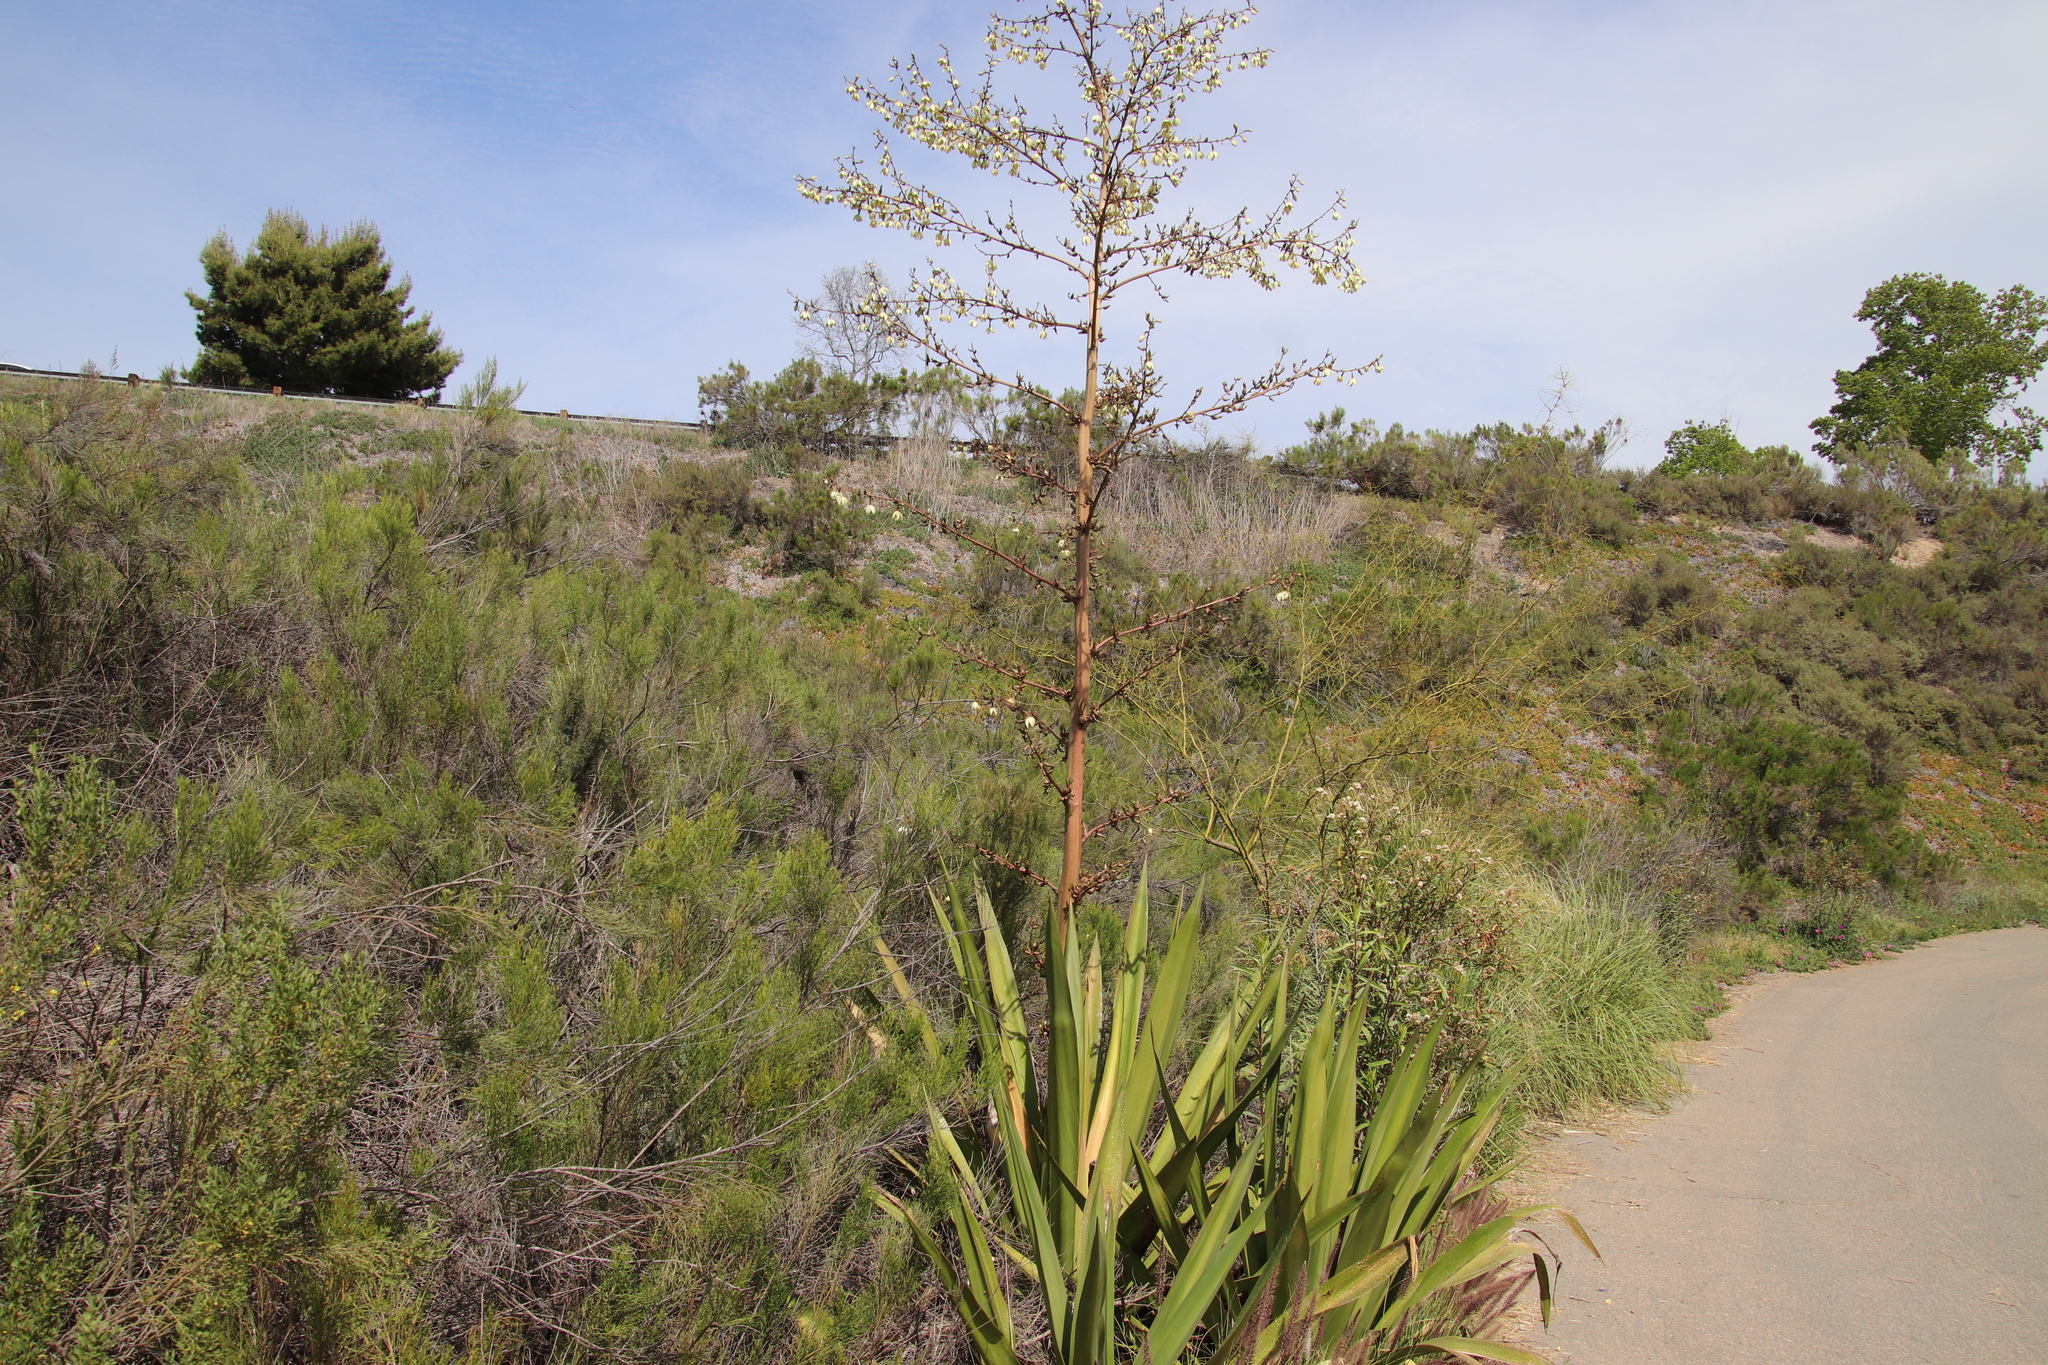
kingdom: Plantae
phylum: Tracheophyta
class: Liliopsida
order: Asparagales
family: Asparagaceae
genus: Furcraea
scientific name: Furcraea foetida
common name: Mauritius hemp
